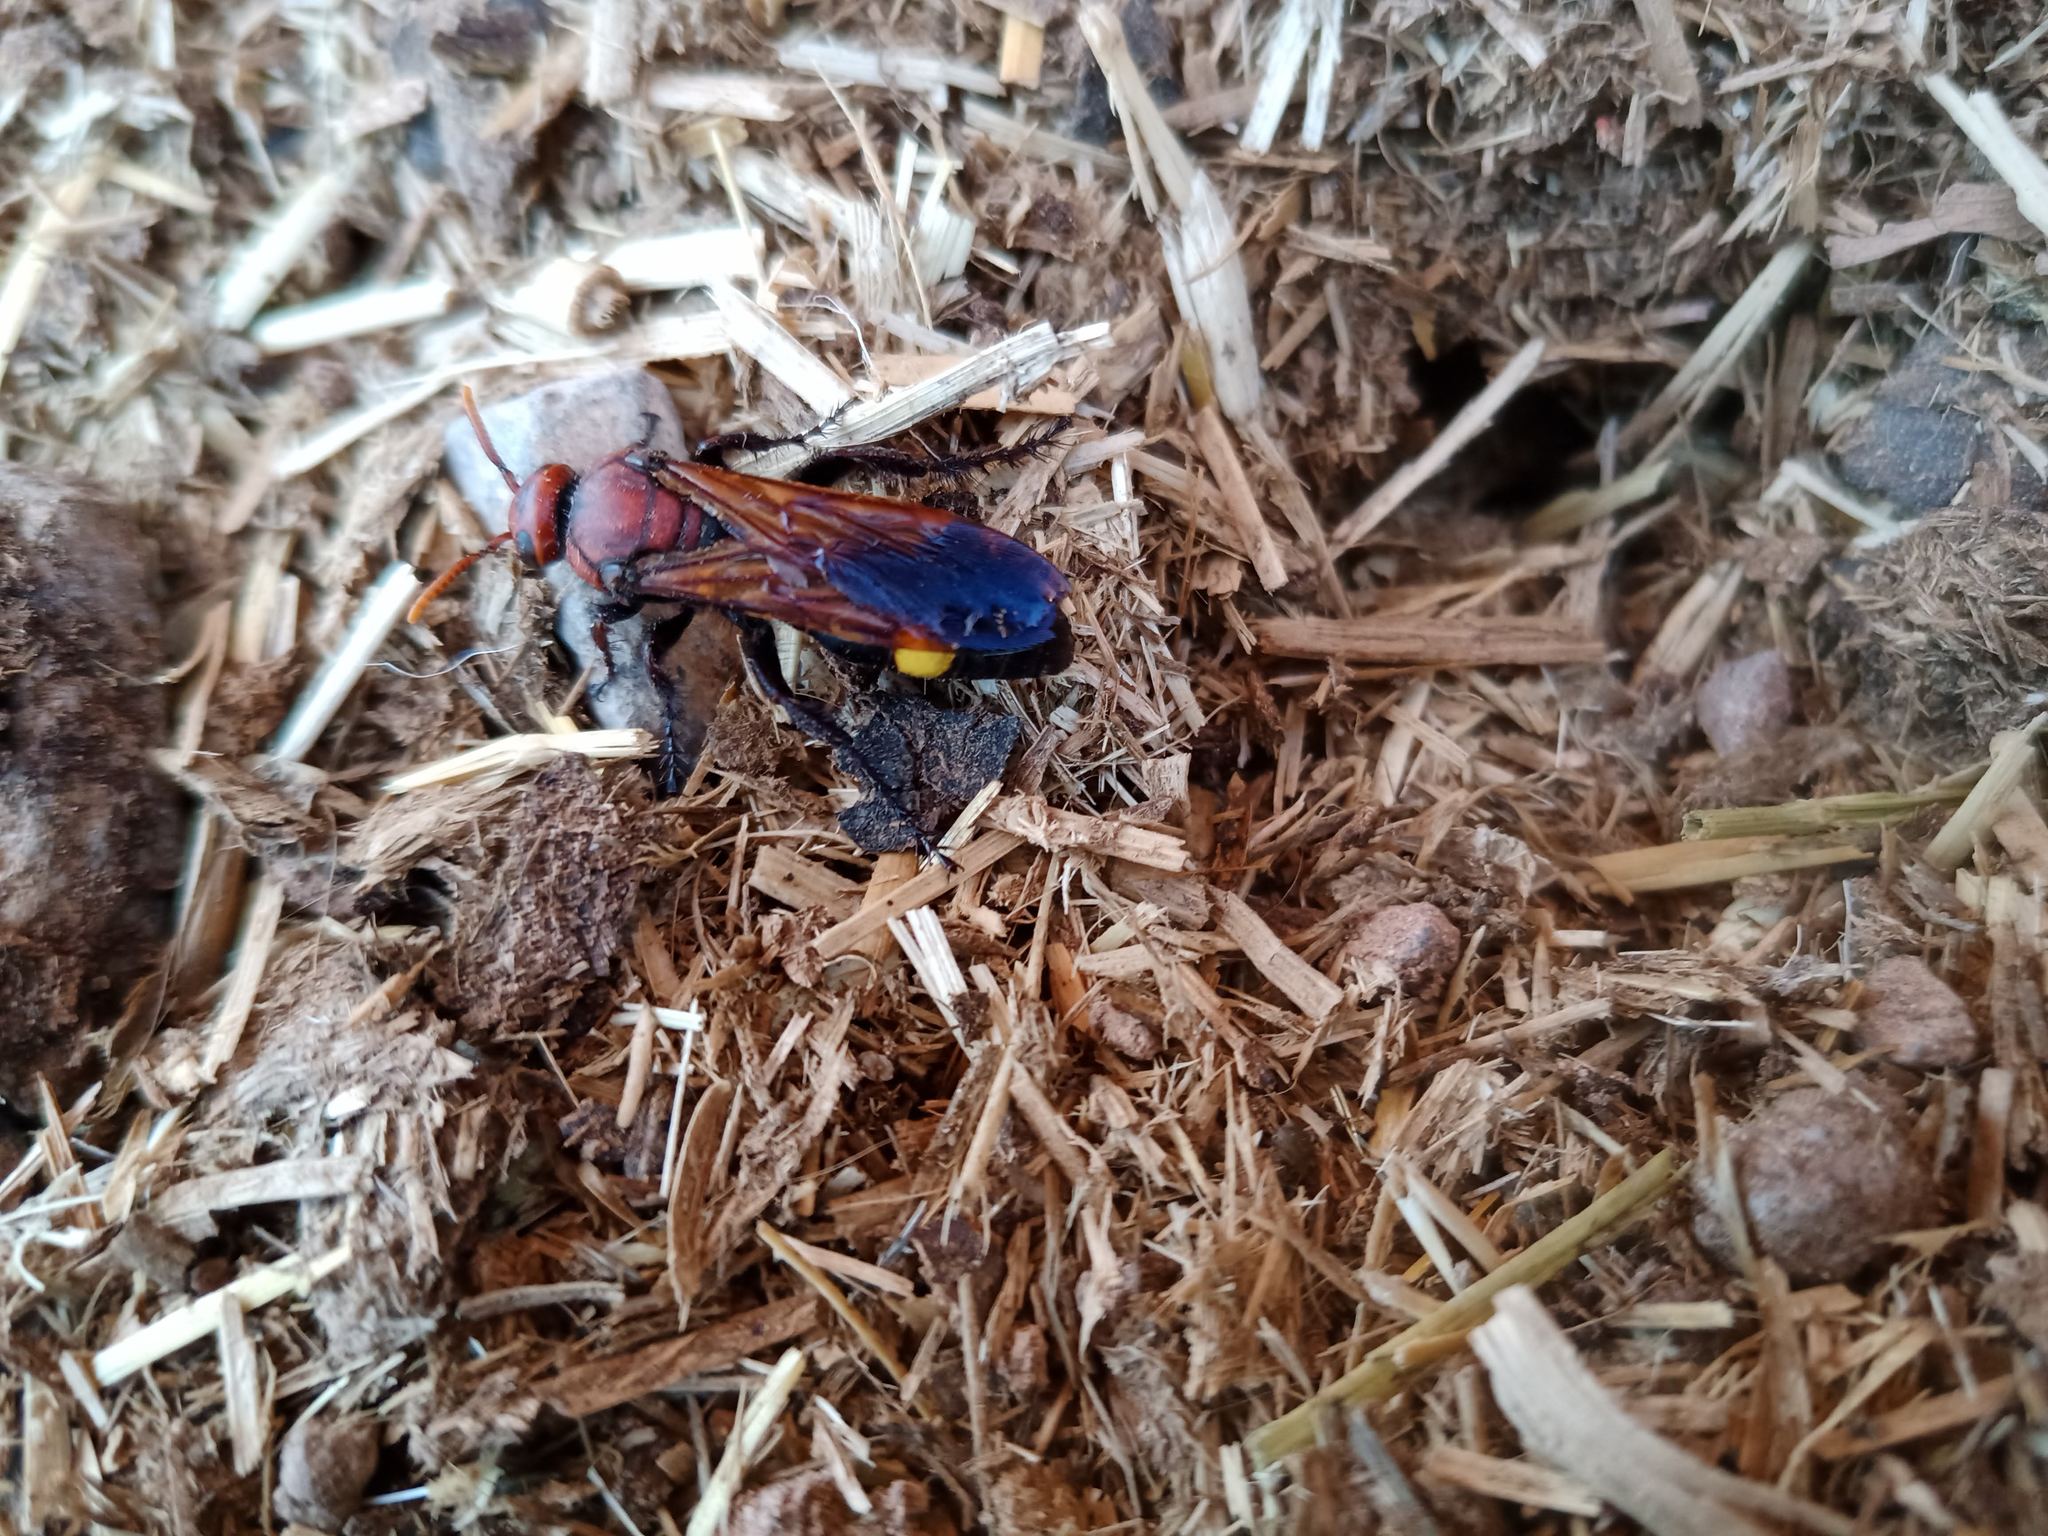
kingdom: Animalia
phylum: Arthropoda
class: Insecta
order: Hymenoptera
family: Scoliidae
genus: Scolia
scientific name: Scolia erythrocephala
